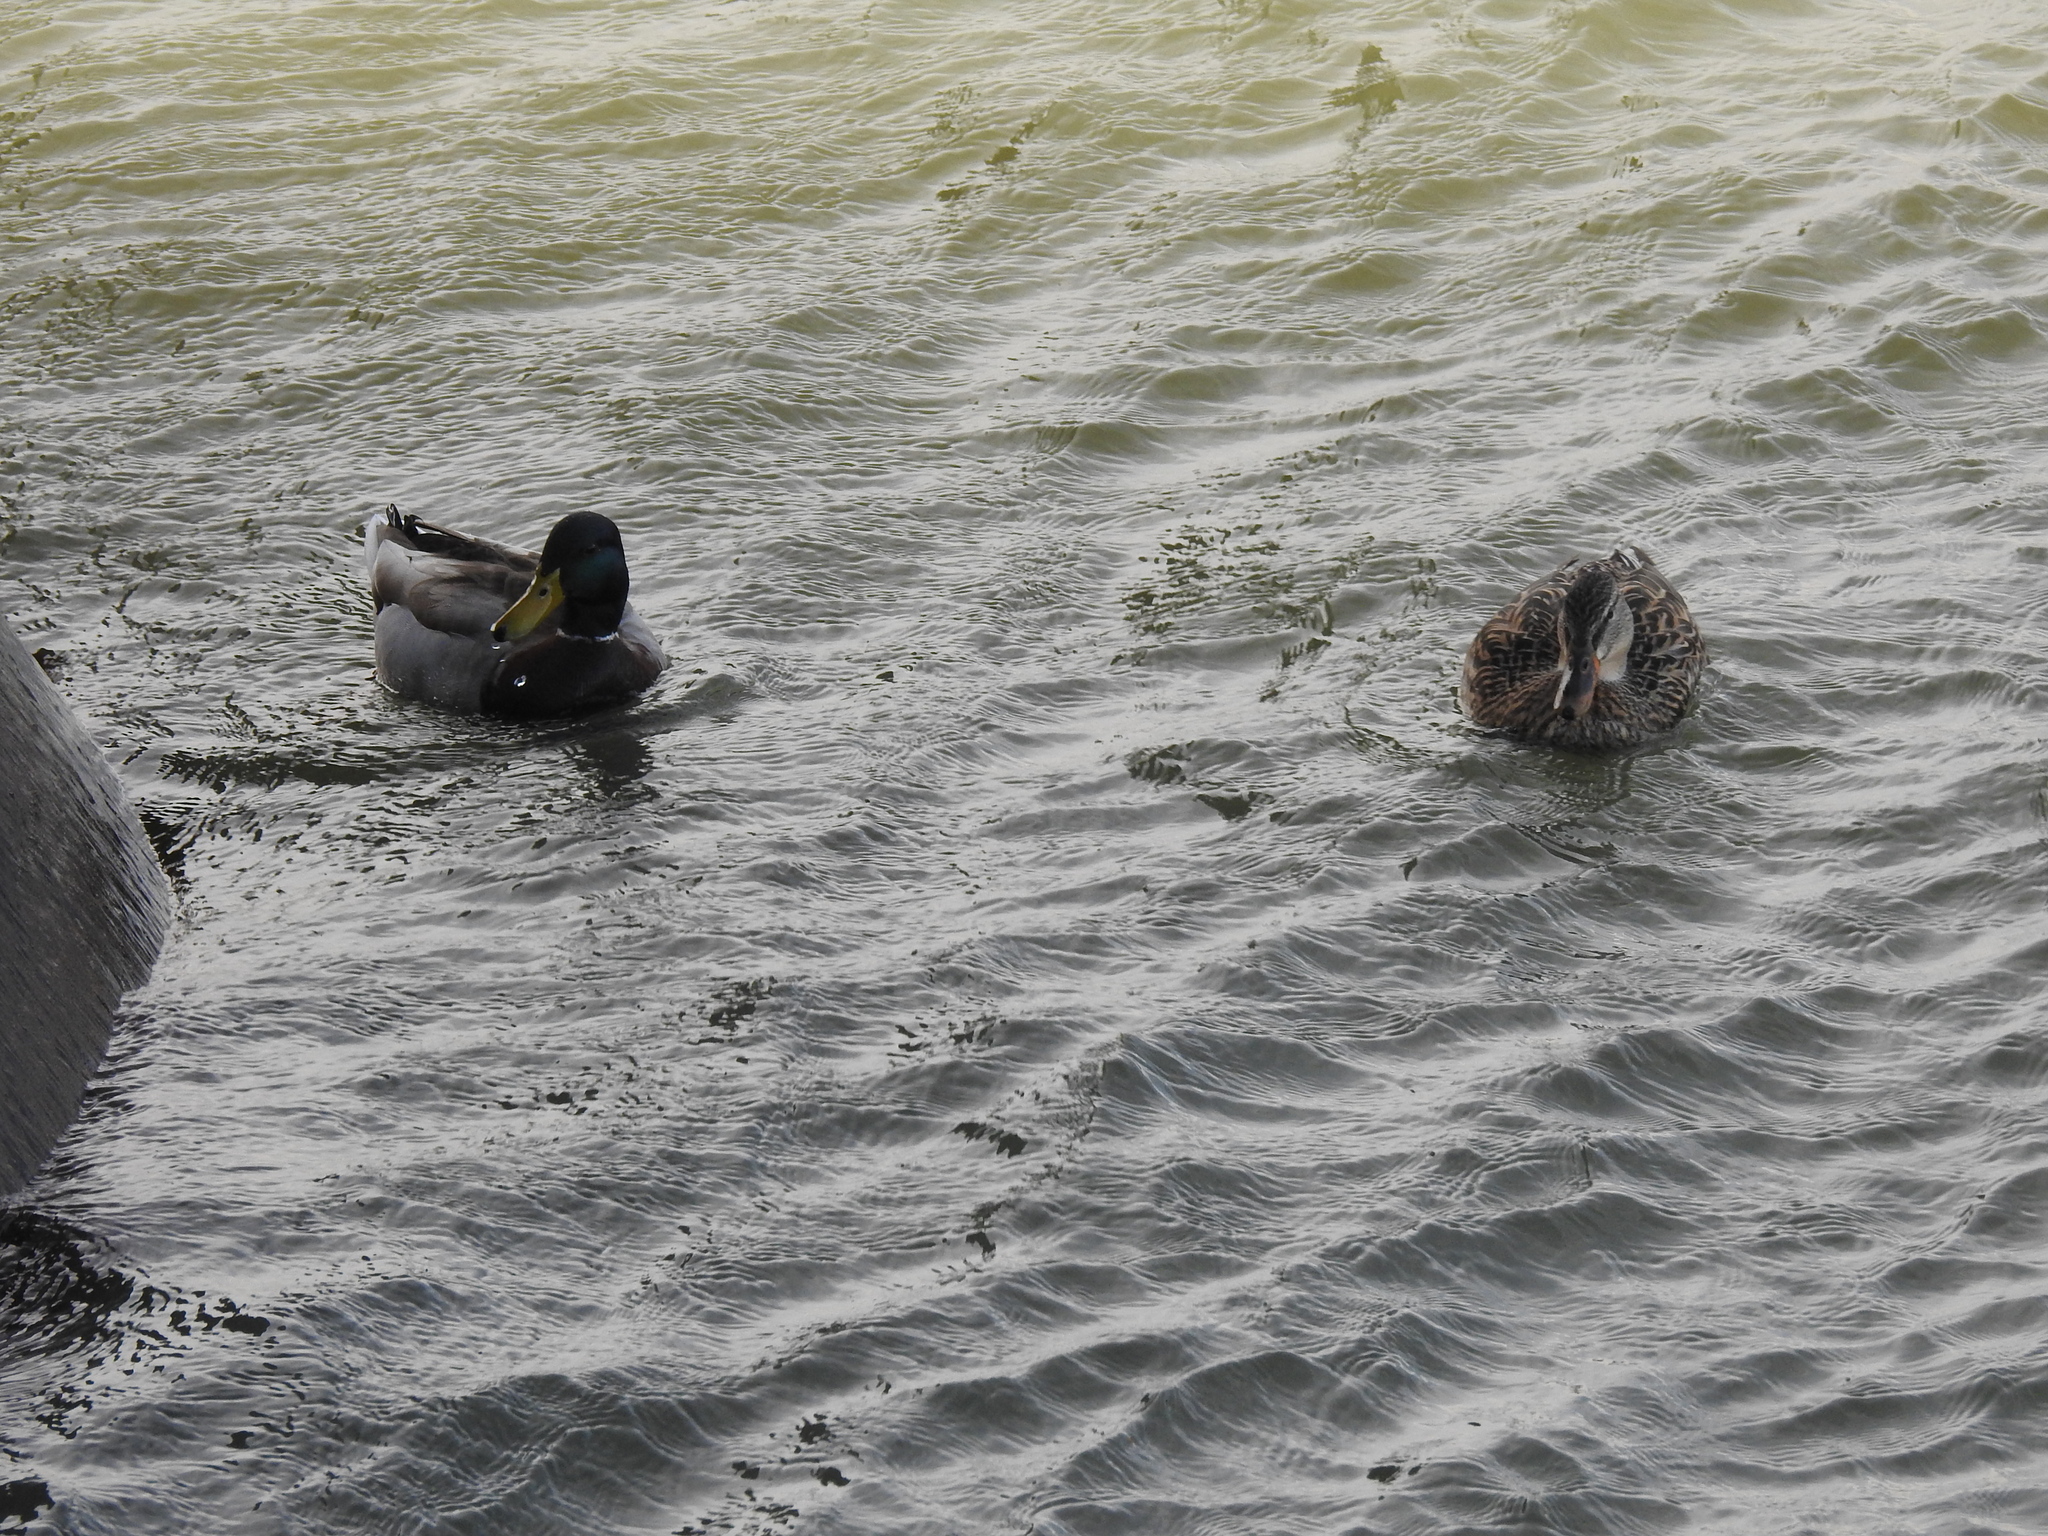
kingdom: Animalia
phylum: Chordata
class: Aves
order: Anseriformes
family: Anatidae
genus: Anas
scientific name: Anas platyrhynchos
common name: Mallard
